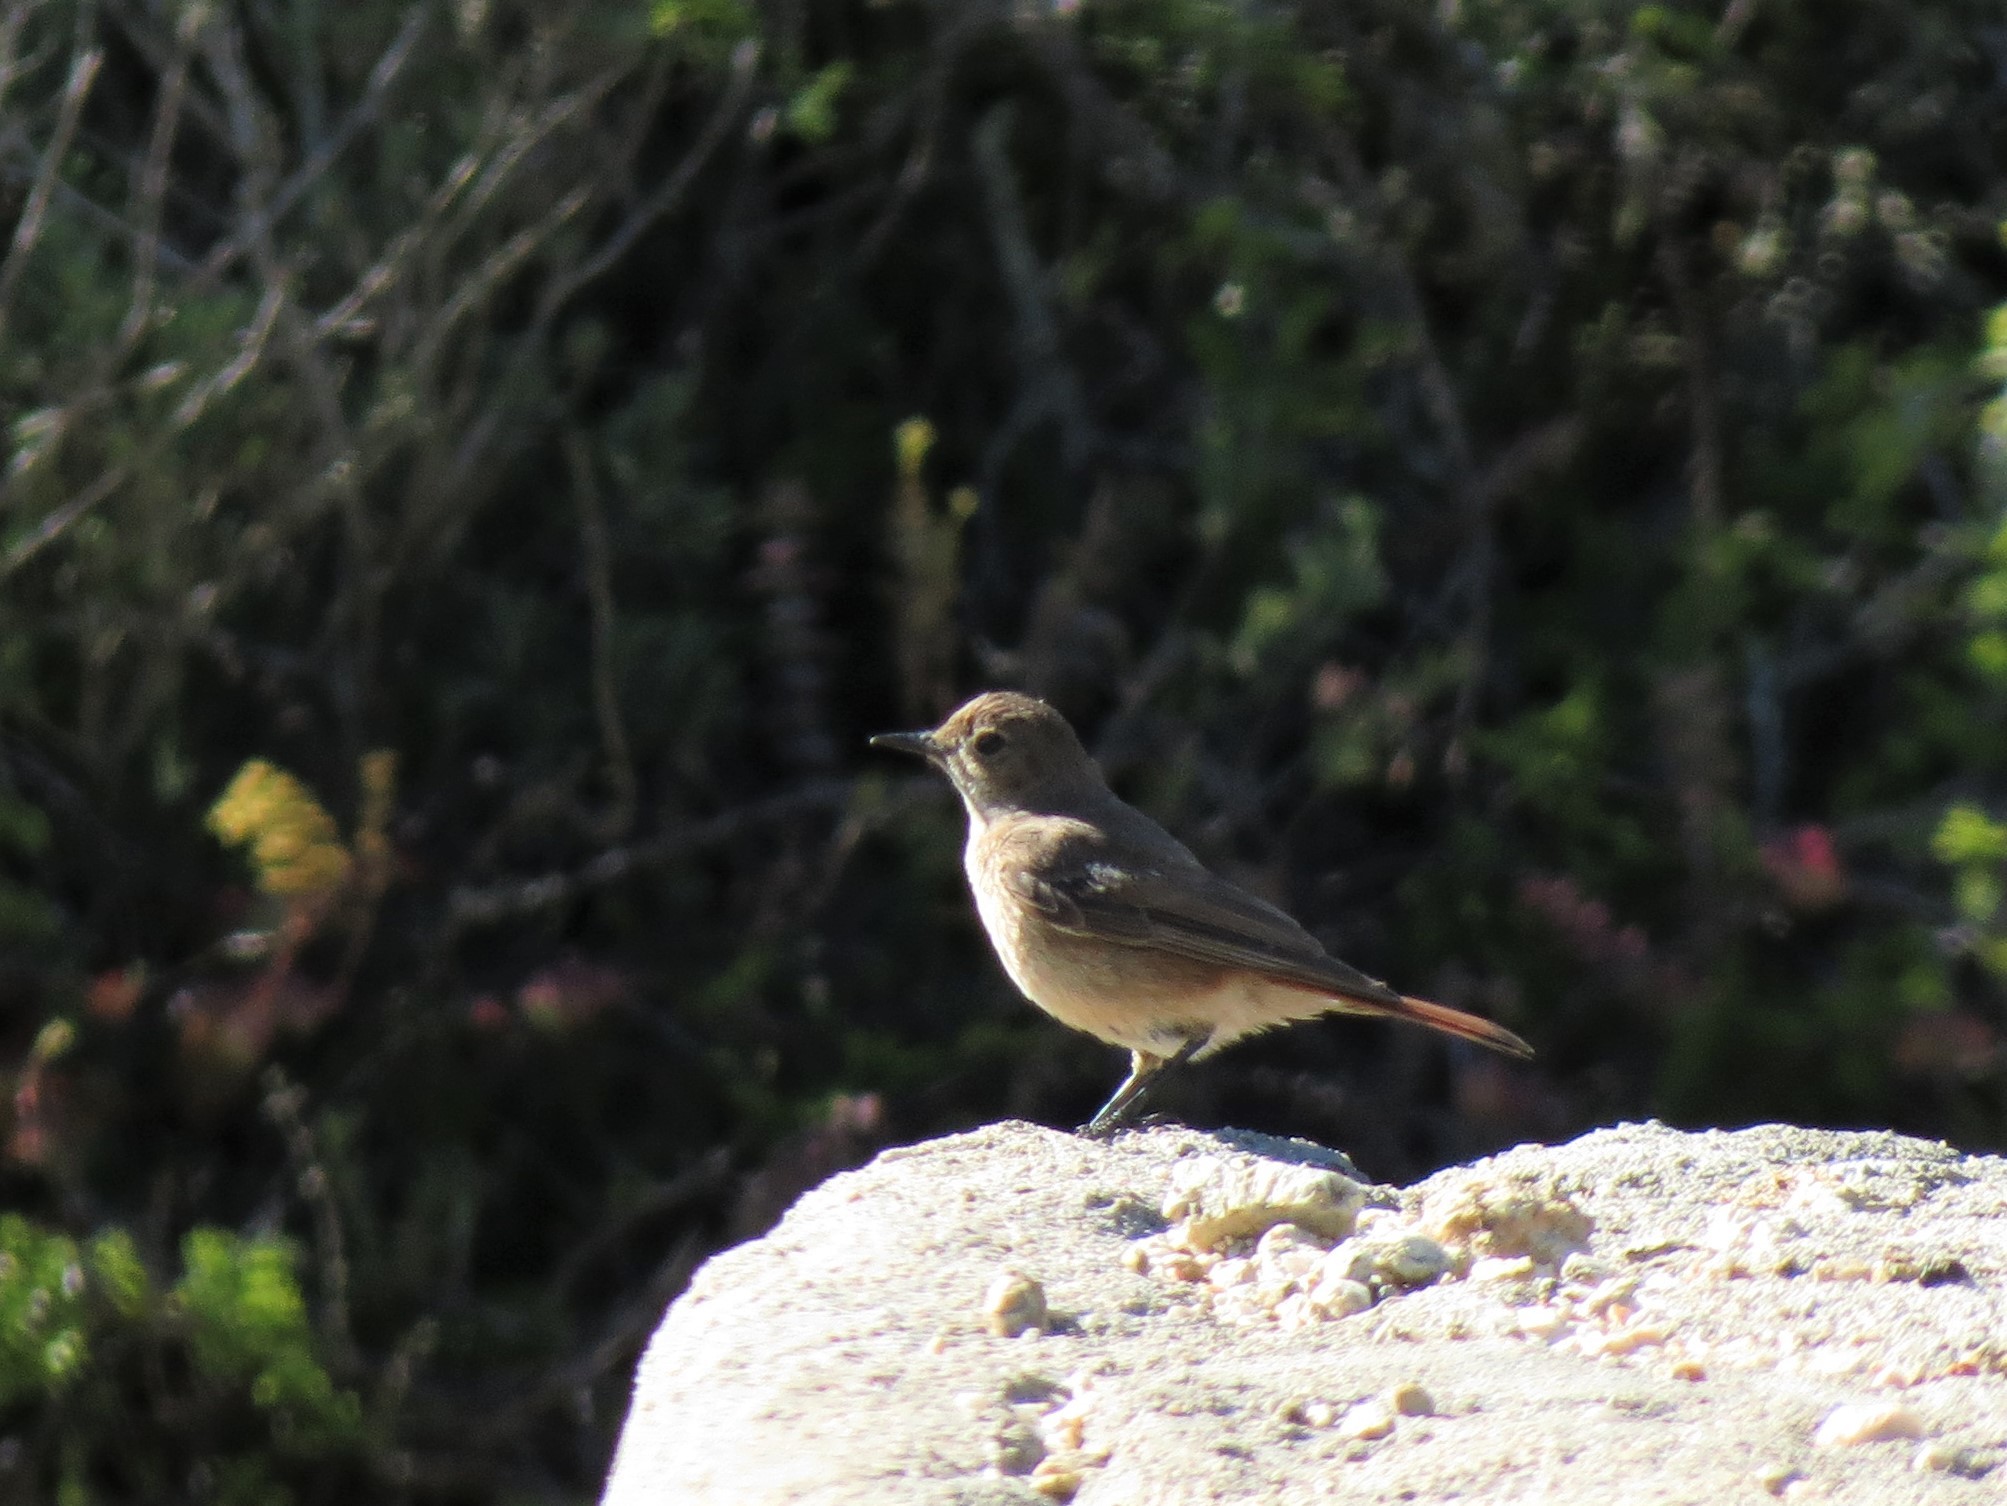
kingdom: Animalia
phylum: Chordata
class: Aves
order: Passeriformes
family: Muscicapidae
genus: Oenanthe
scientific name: Oenanthe familiaris
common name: Familiar chat
